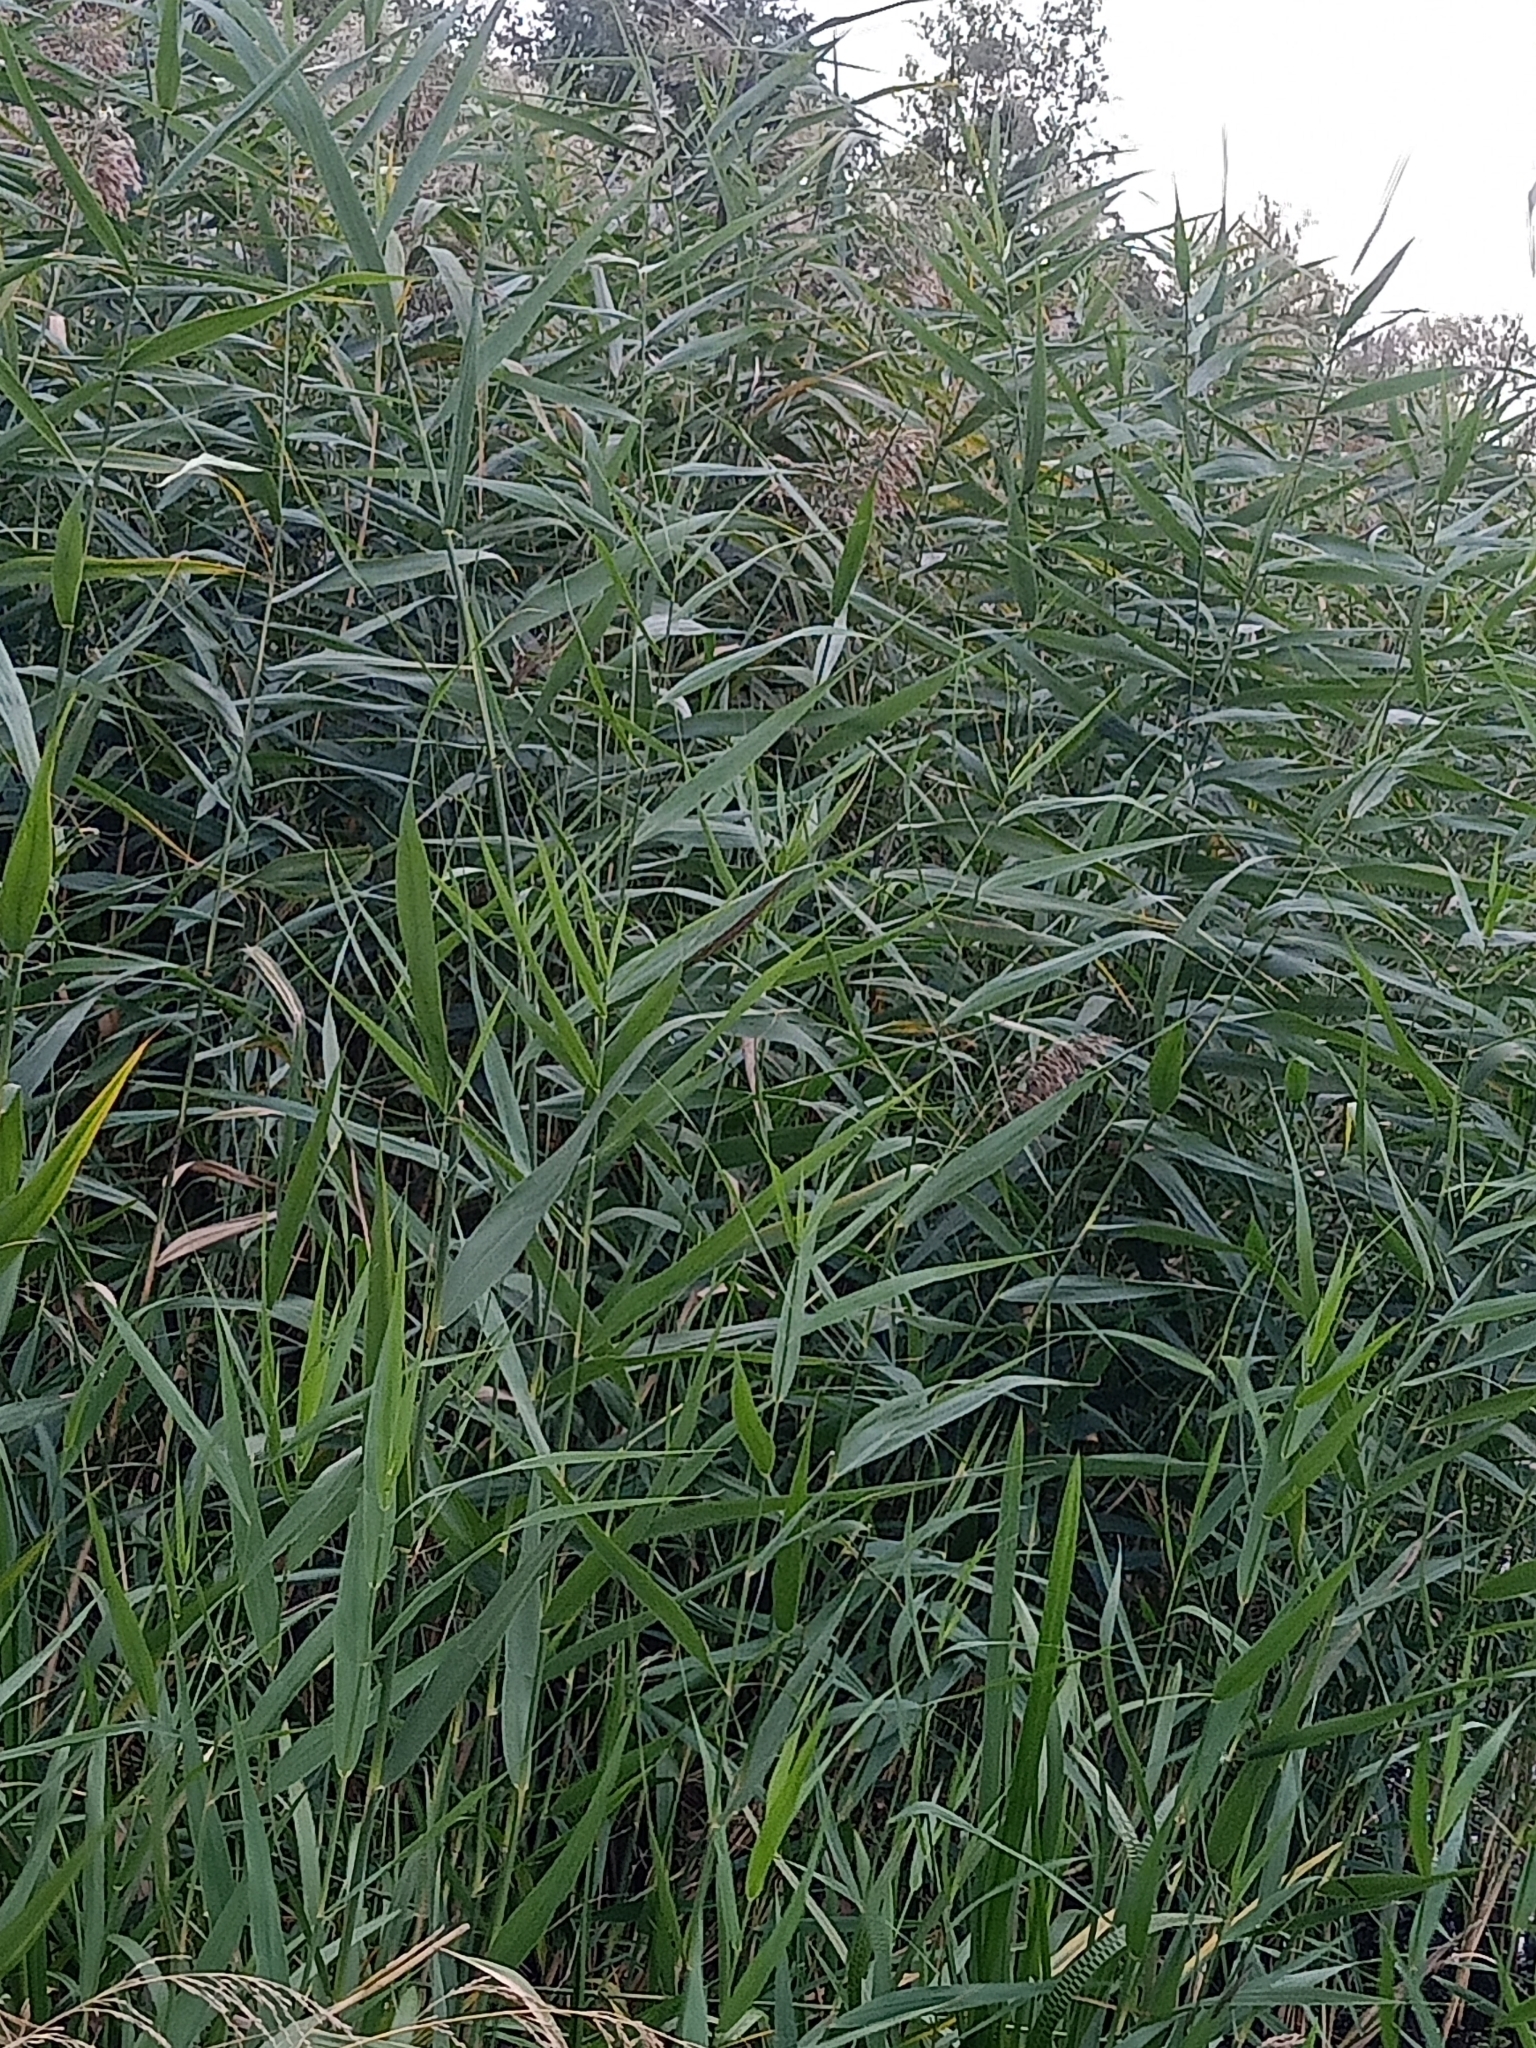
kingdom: Plantae
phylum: Tracheophyta
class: Liliopsida
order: Poales
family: Poaceae
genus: Phragmites
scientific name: Phragmites australis
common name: Common reed
